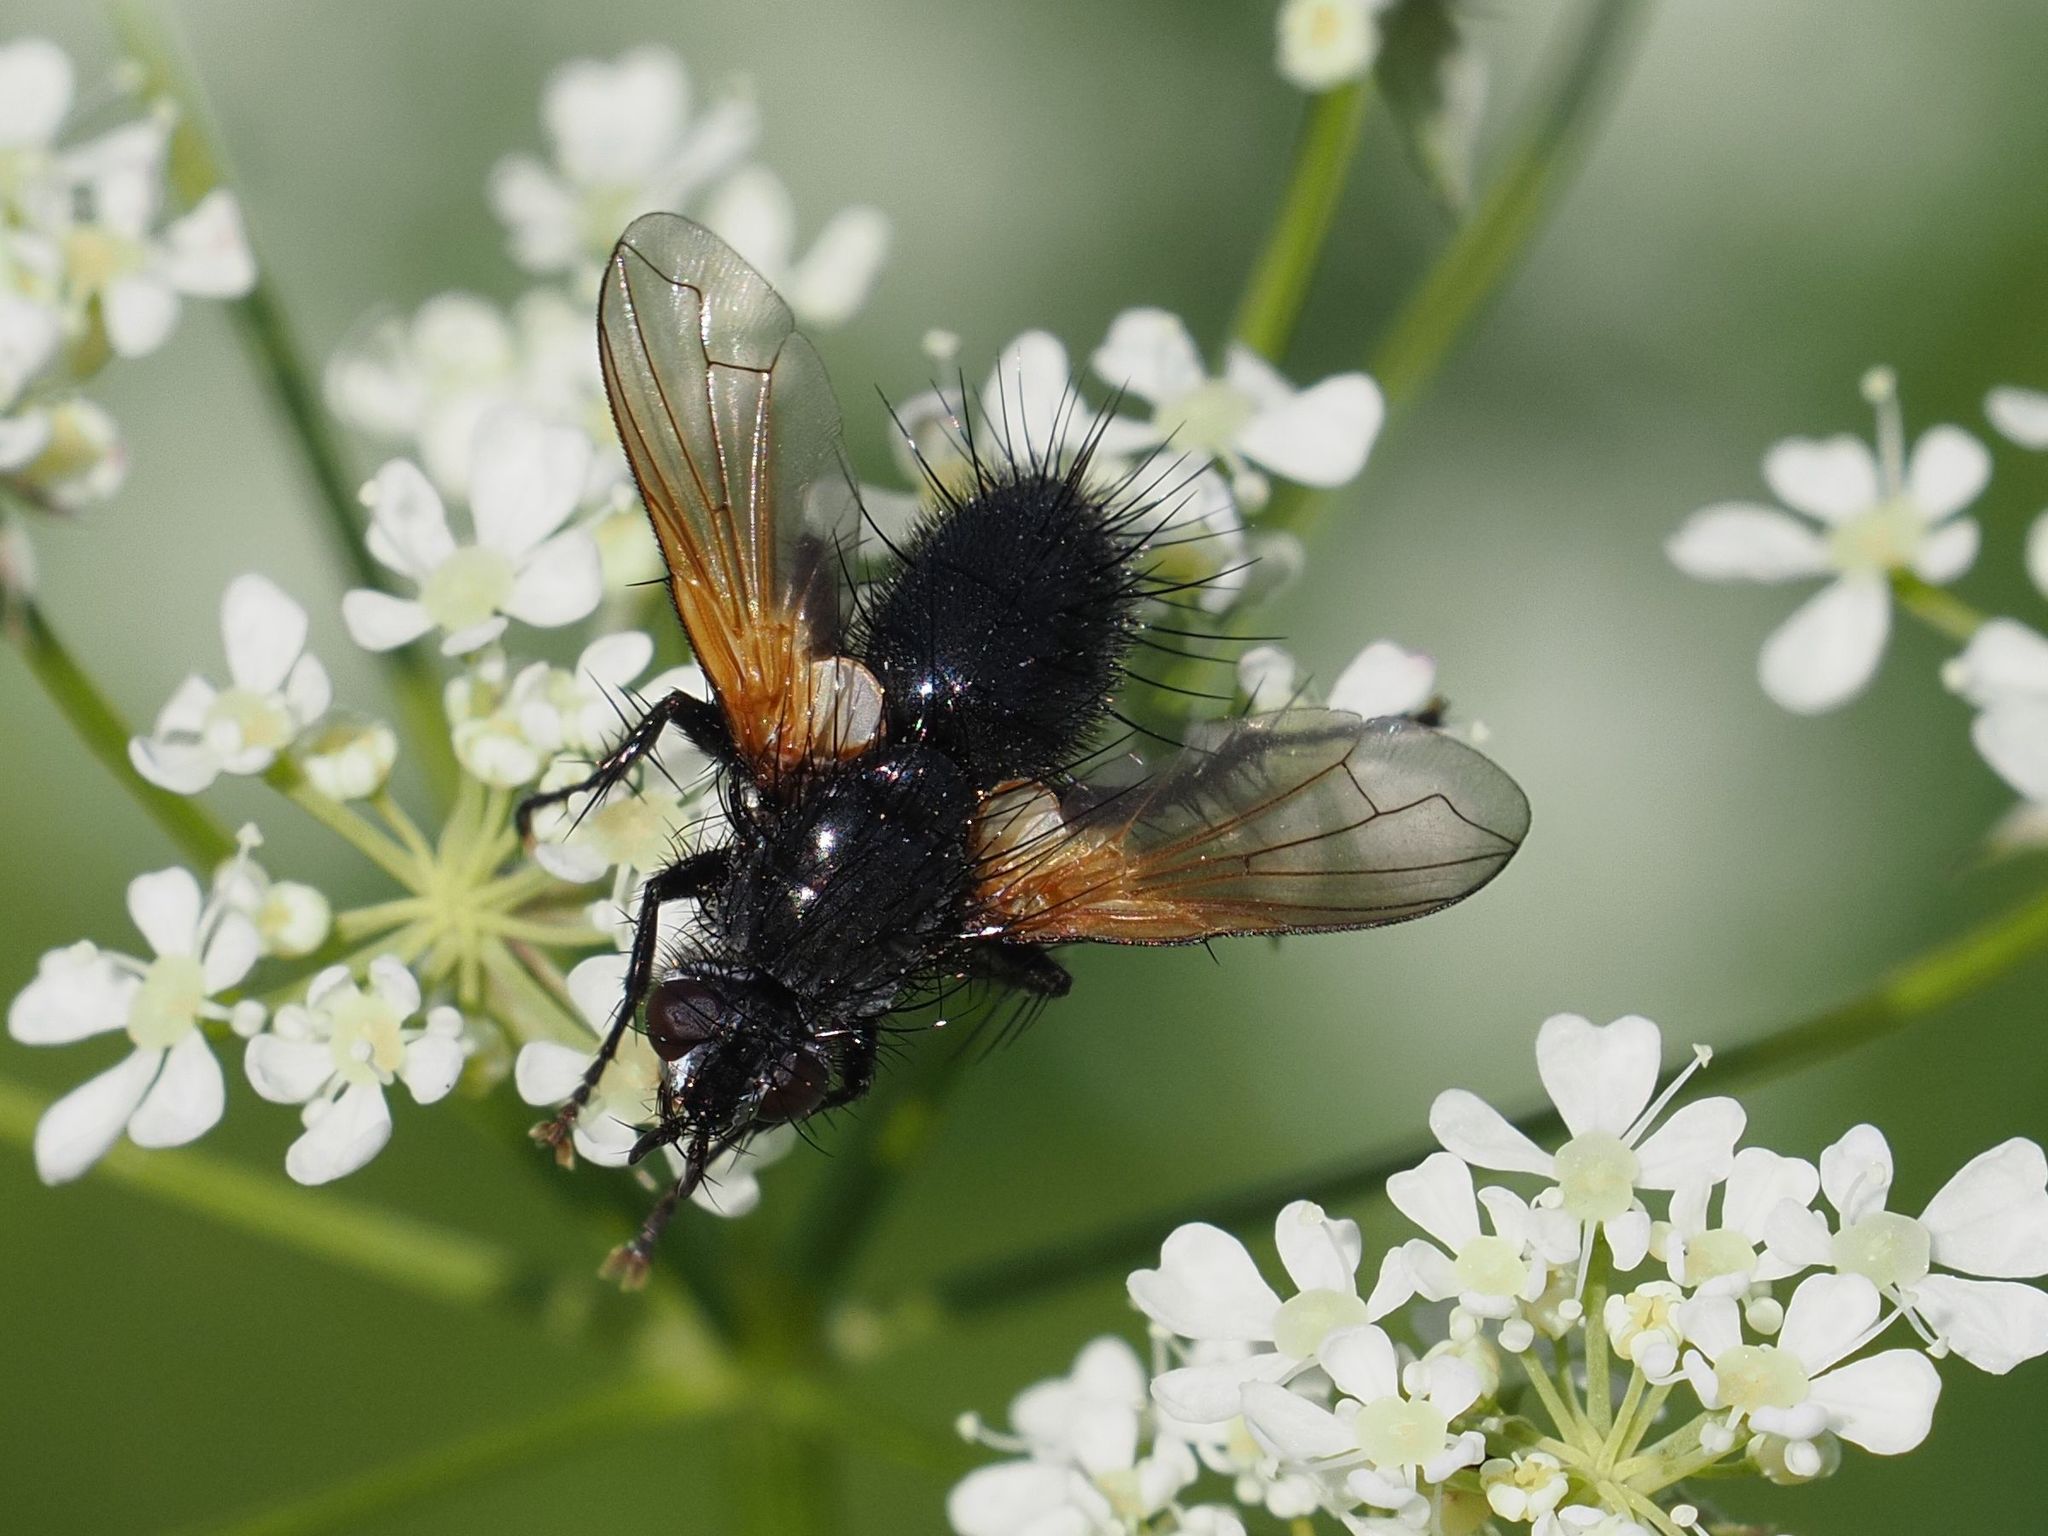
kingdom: Animalia
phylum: Arthropoda
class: Insecta
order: Diptera
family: Tachinidae
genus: Zophomyia
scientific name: Zophomyia temula
